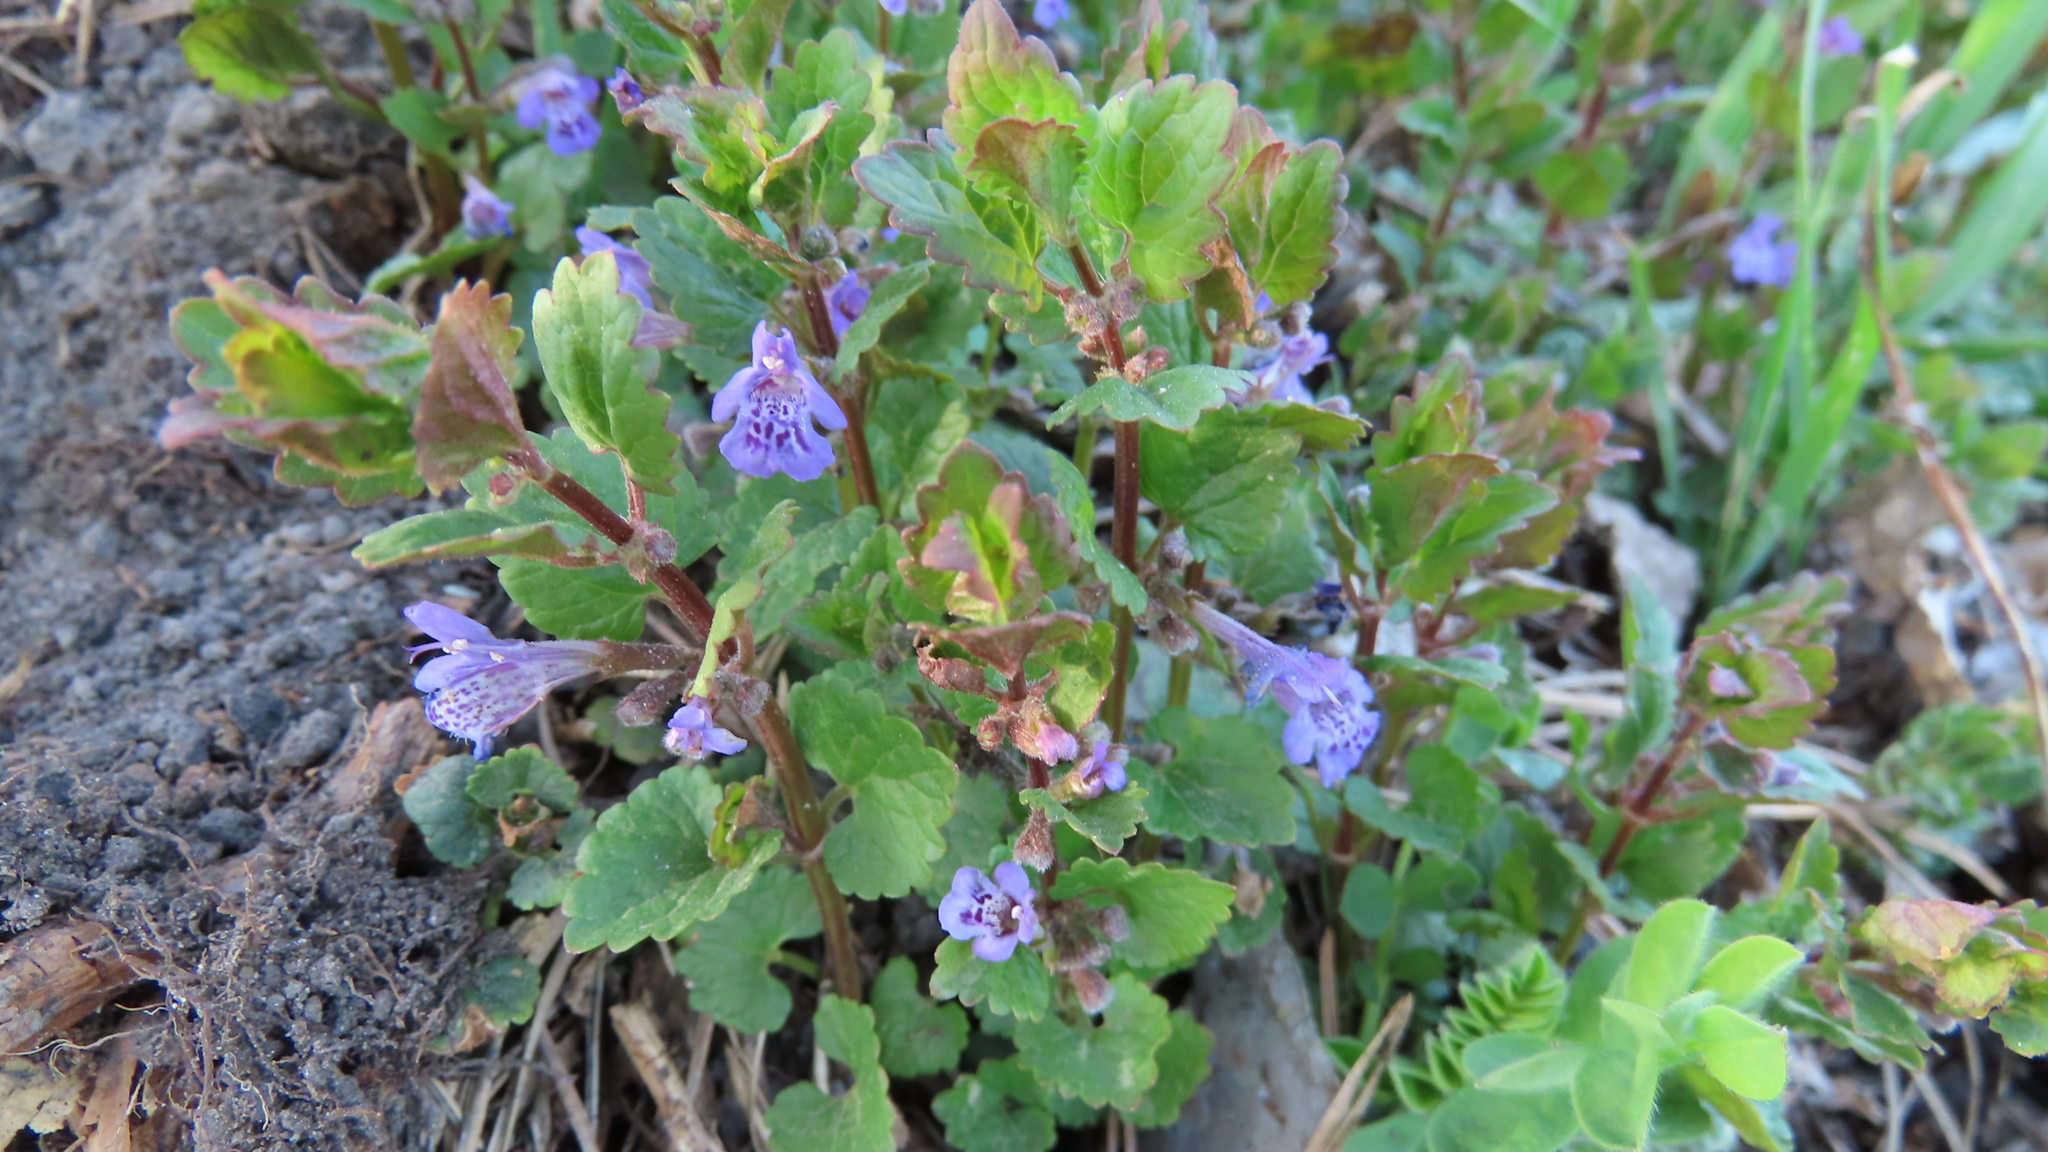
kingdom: Plantae
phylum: Tracheophyta
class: Magnoliopsida
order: Lamiales
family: Lamiaceae
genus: Glechoma
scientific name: Glechoma hederacea
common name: Ground ivy
